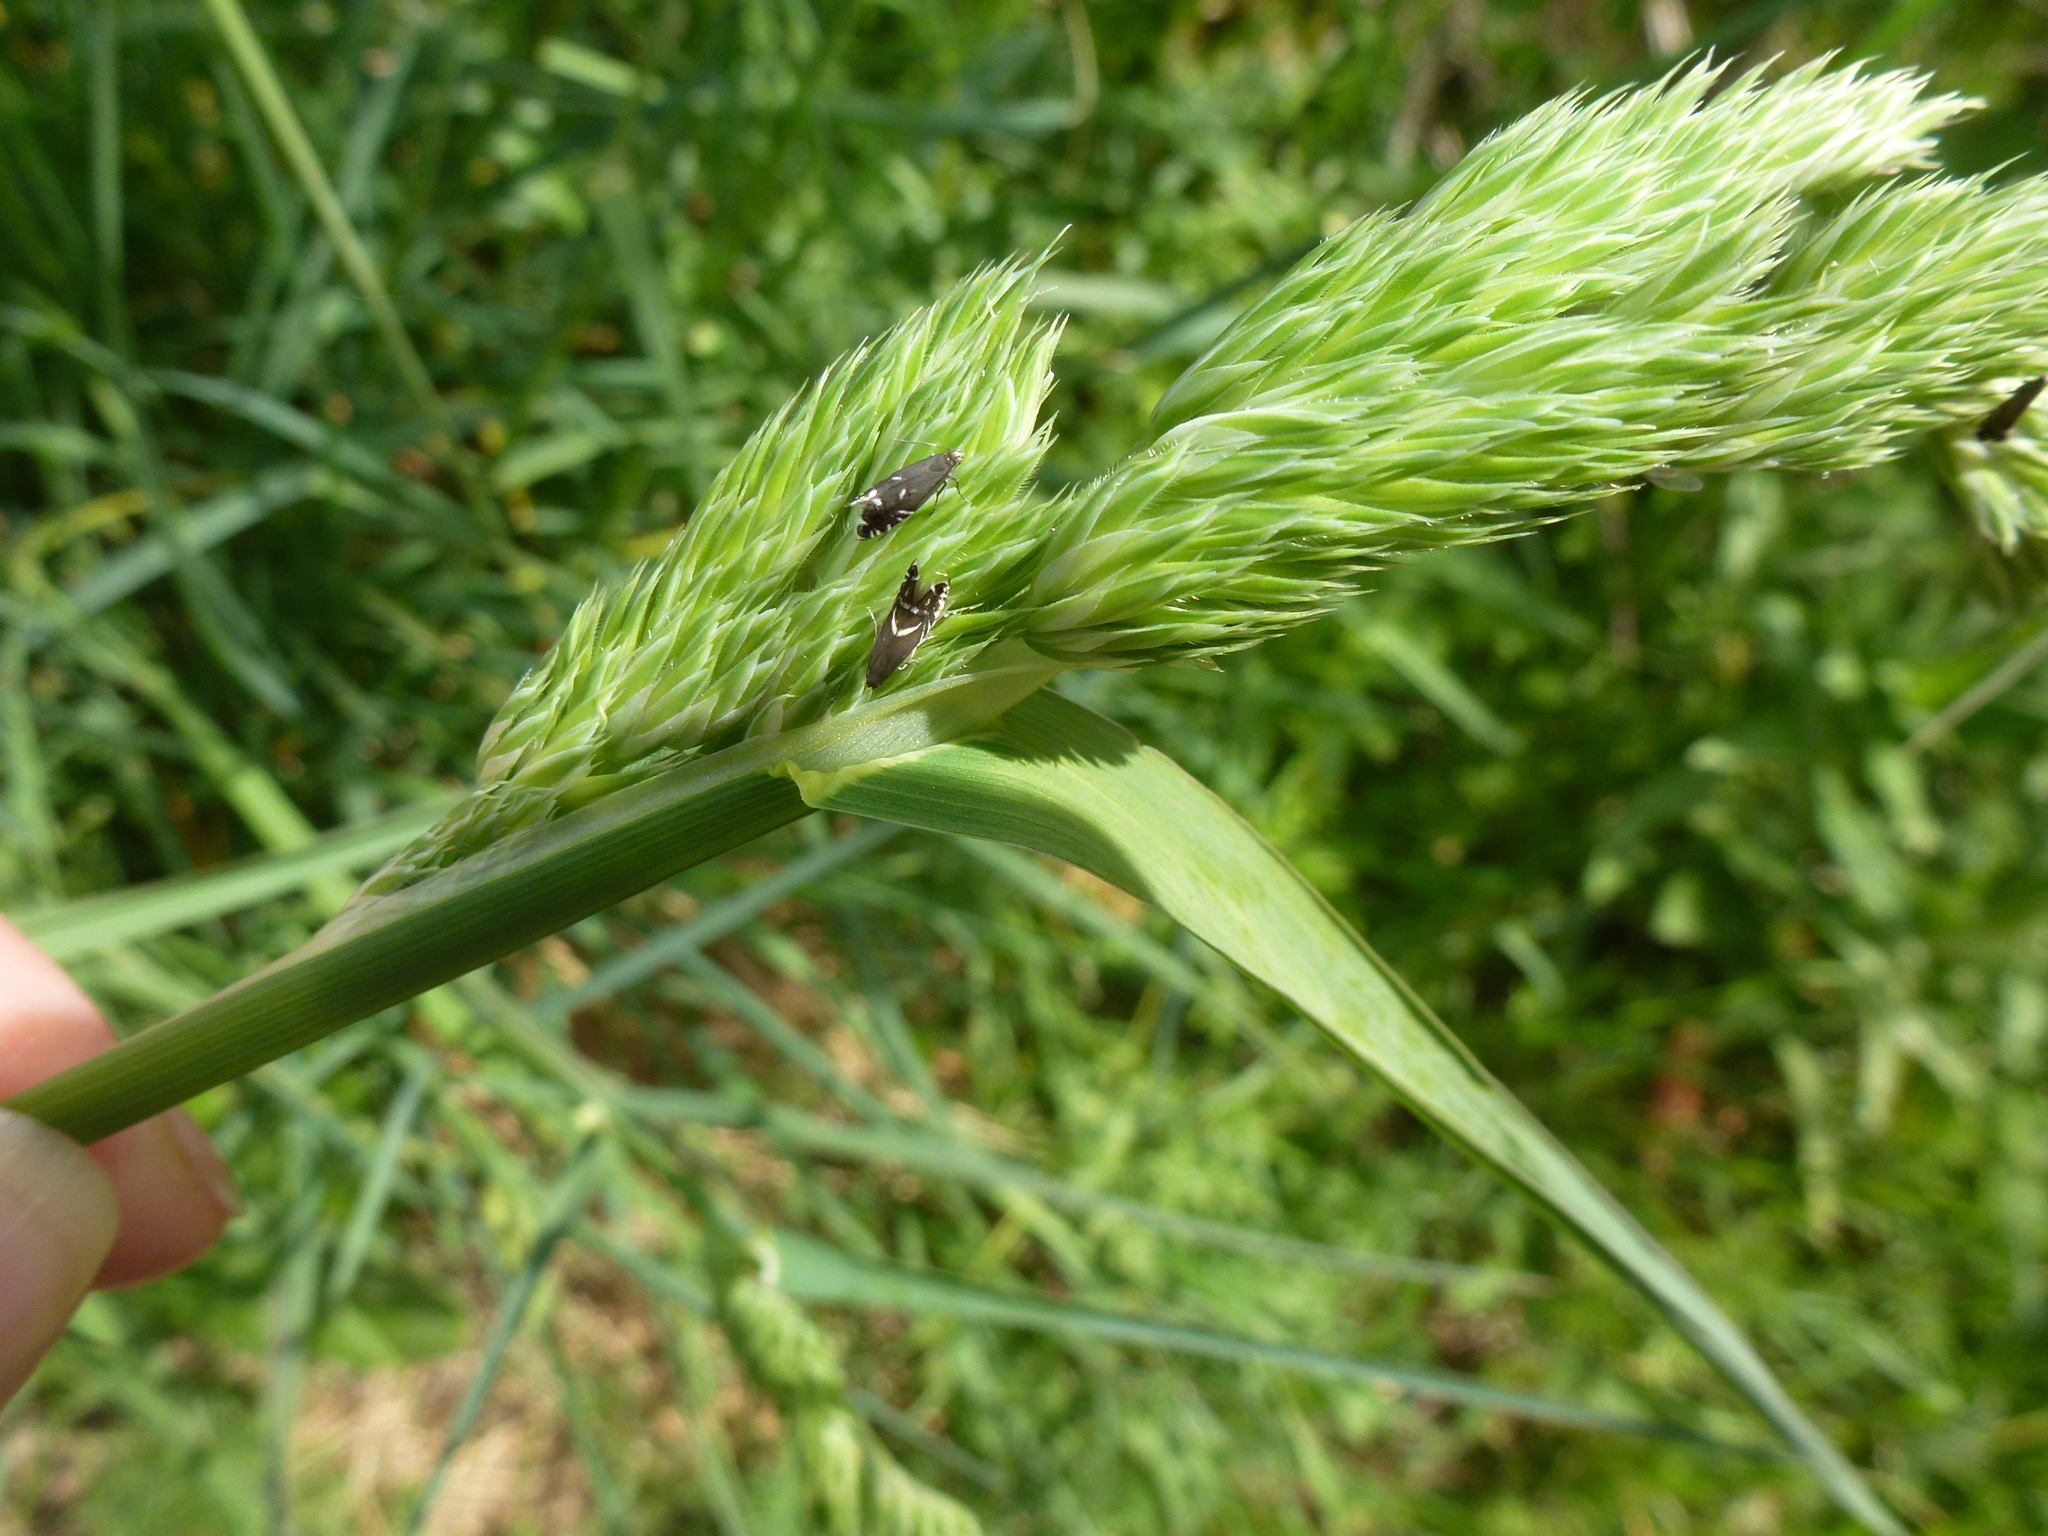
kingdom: Animalia
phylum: Arthropoda
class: Insecta
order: Lepidoptera
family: Glyphipterigidae
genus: Glyphipterix
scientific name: Glyphipterix simpliciella
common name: Cocksfoot moth
